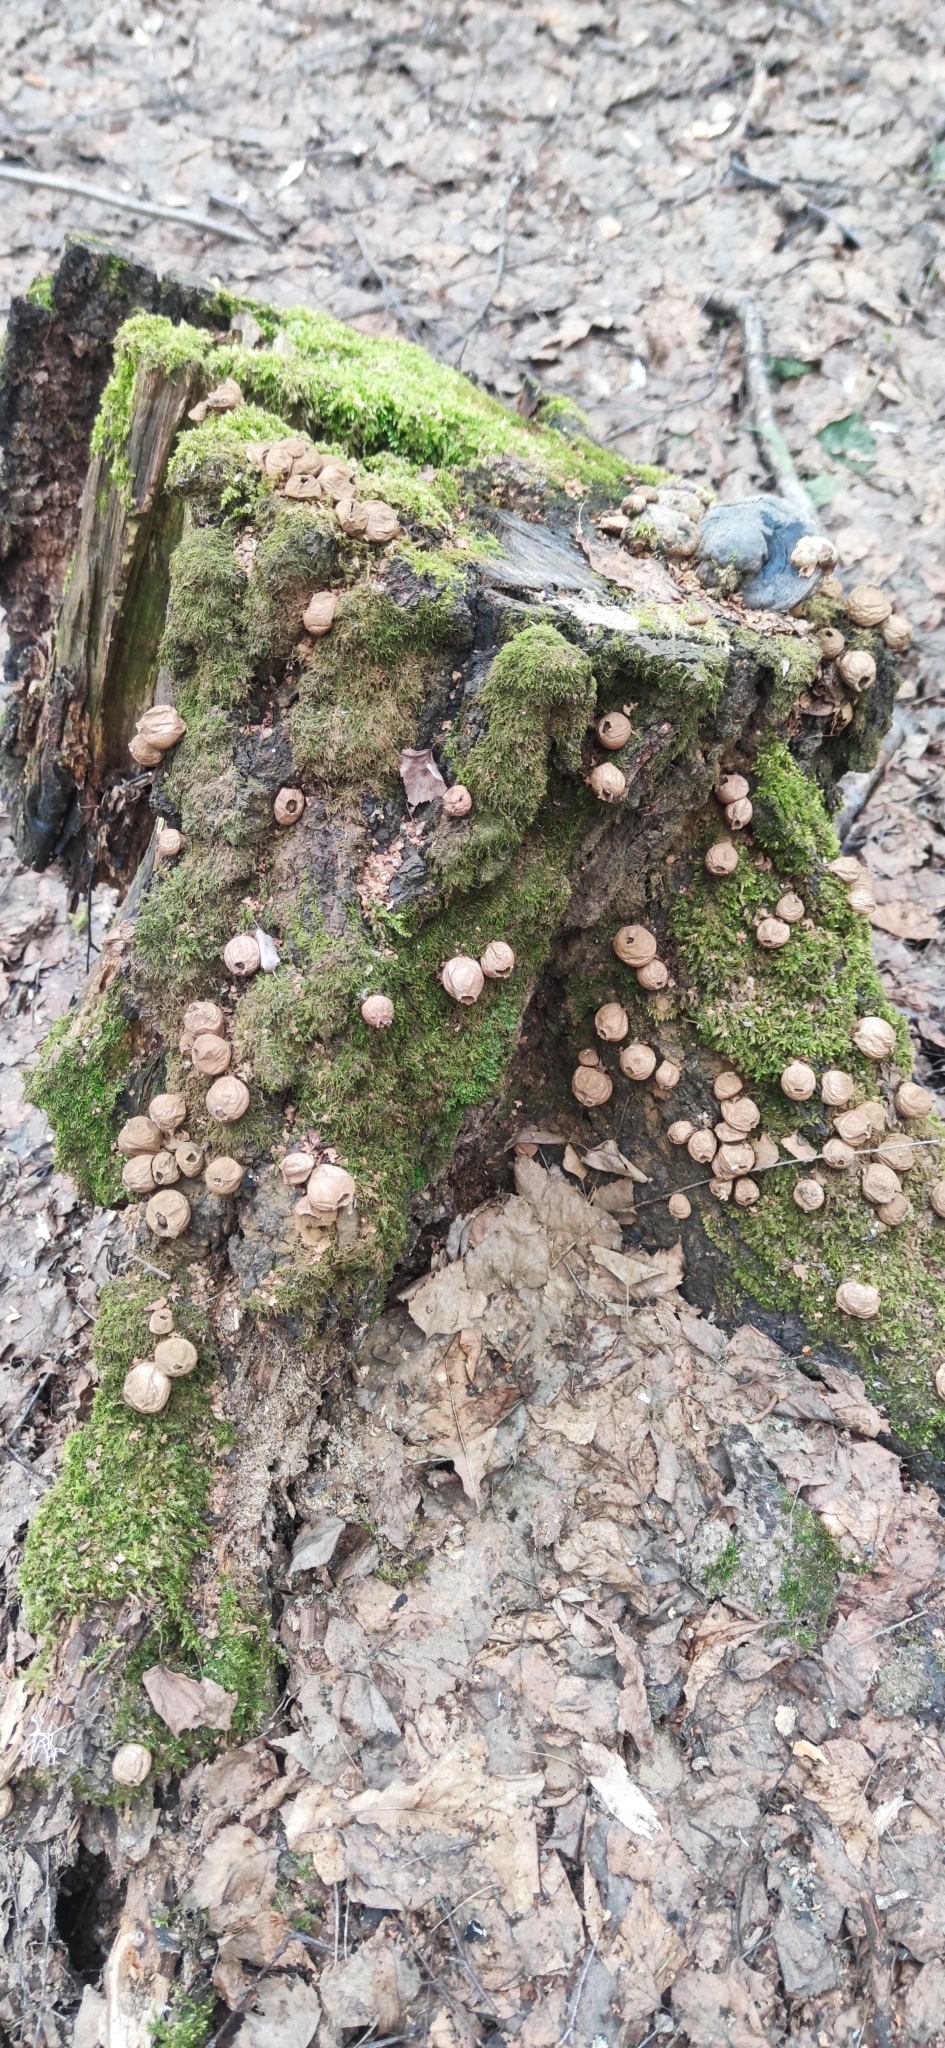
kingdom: Fungi
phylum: Basidiomycota
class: Agaricomycetes
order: Agaricales
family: Lycoperdaceae
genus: Apioperdon
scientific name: Apioperdon pyriforme
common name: Pear-shaped puffball
